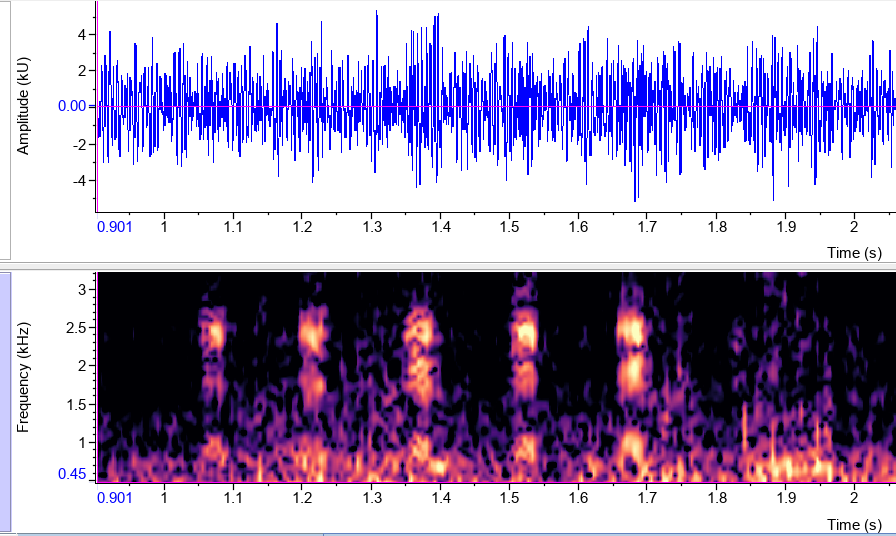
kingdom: Animalia
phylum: Chordata
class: Amphibia
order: Anura
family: Phyllomedusidae
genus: Pithecopus
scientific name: Pithecopus azureus
